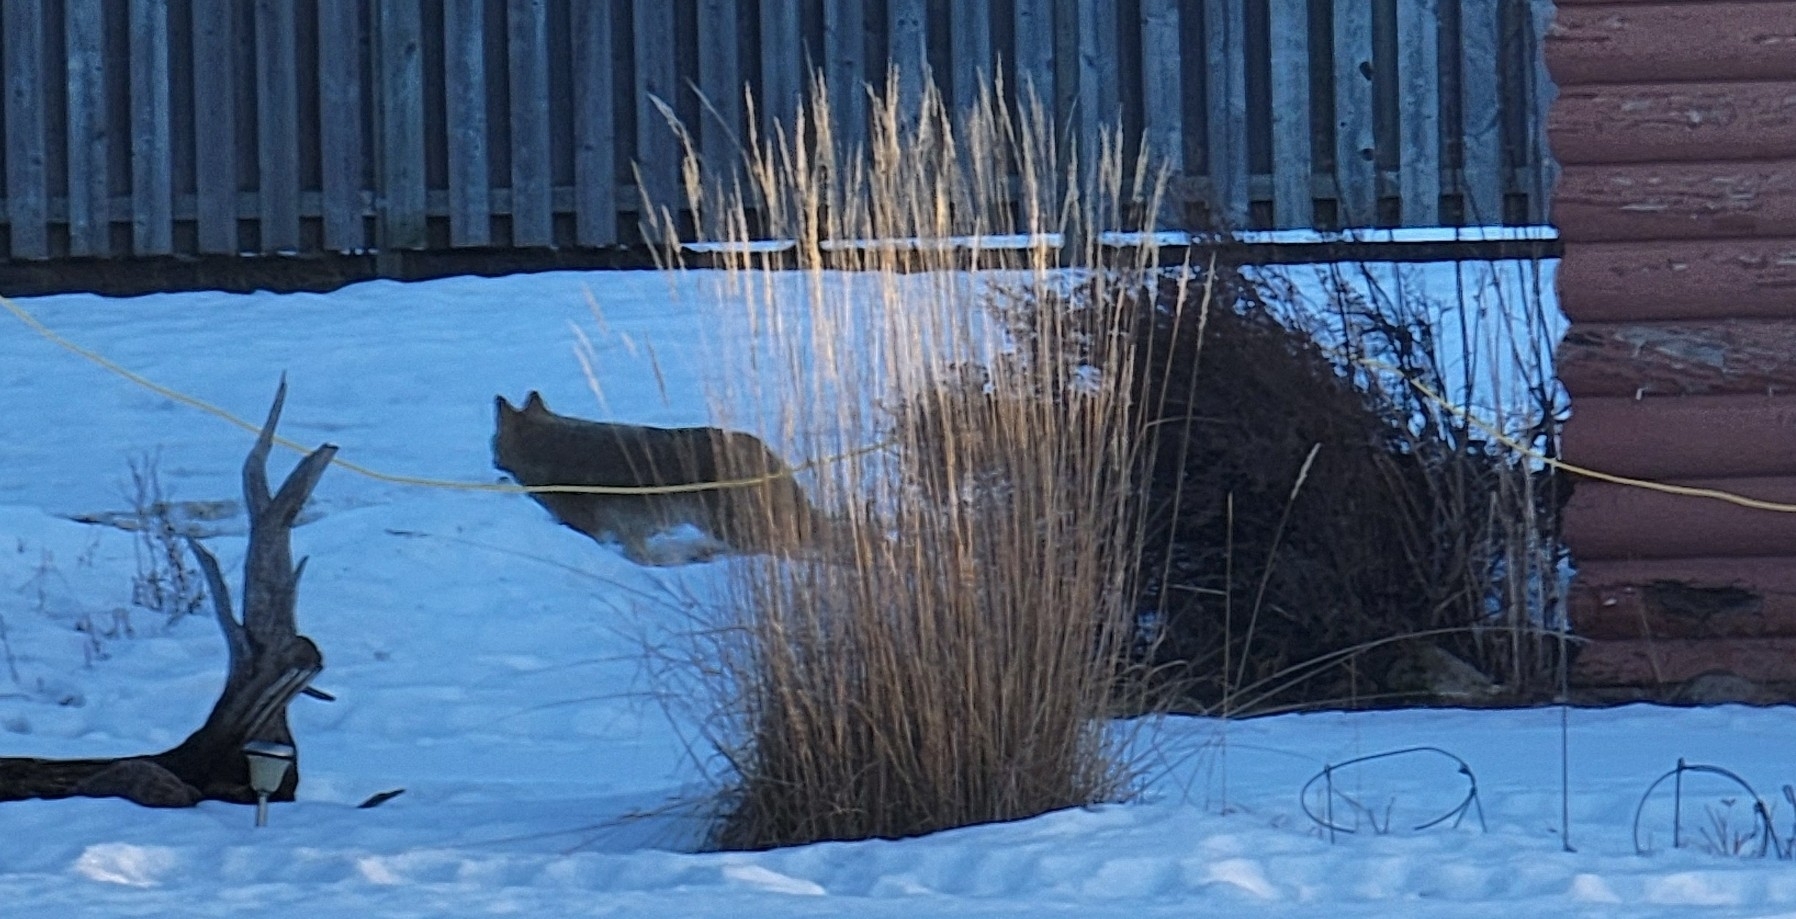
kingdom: Animalia
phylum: Chordata
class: Mammalia
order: Carnivora
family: Canidae
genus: Canis
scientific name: Canis latrans
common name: Coyote
